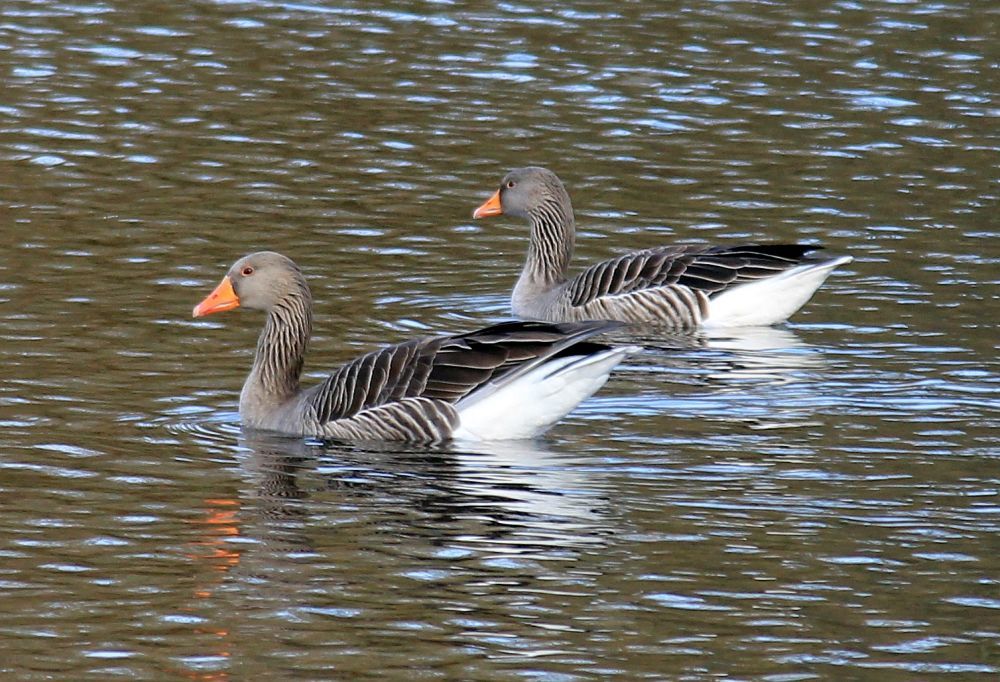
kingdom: Animalia
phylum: Chordata
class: Aves
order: Anseriformes
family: Anatidae
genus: Anser
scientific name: Anser anser
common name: Greylag goose
